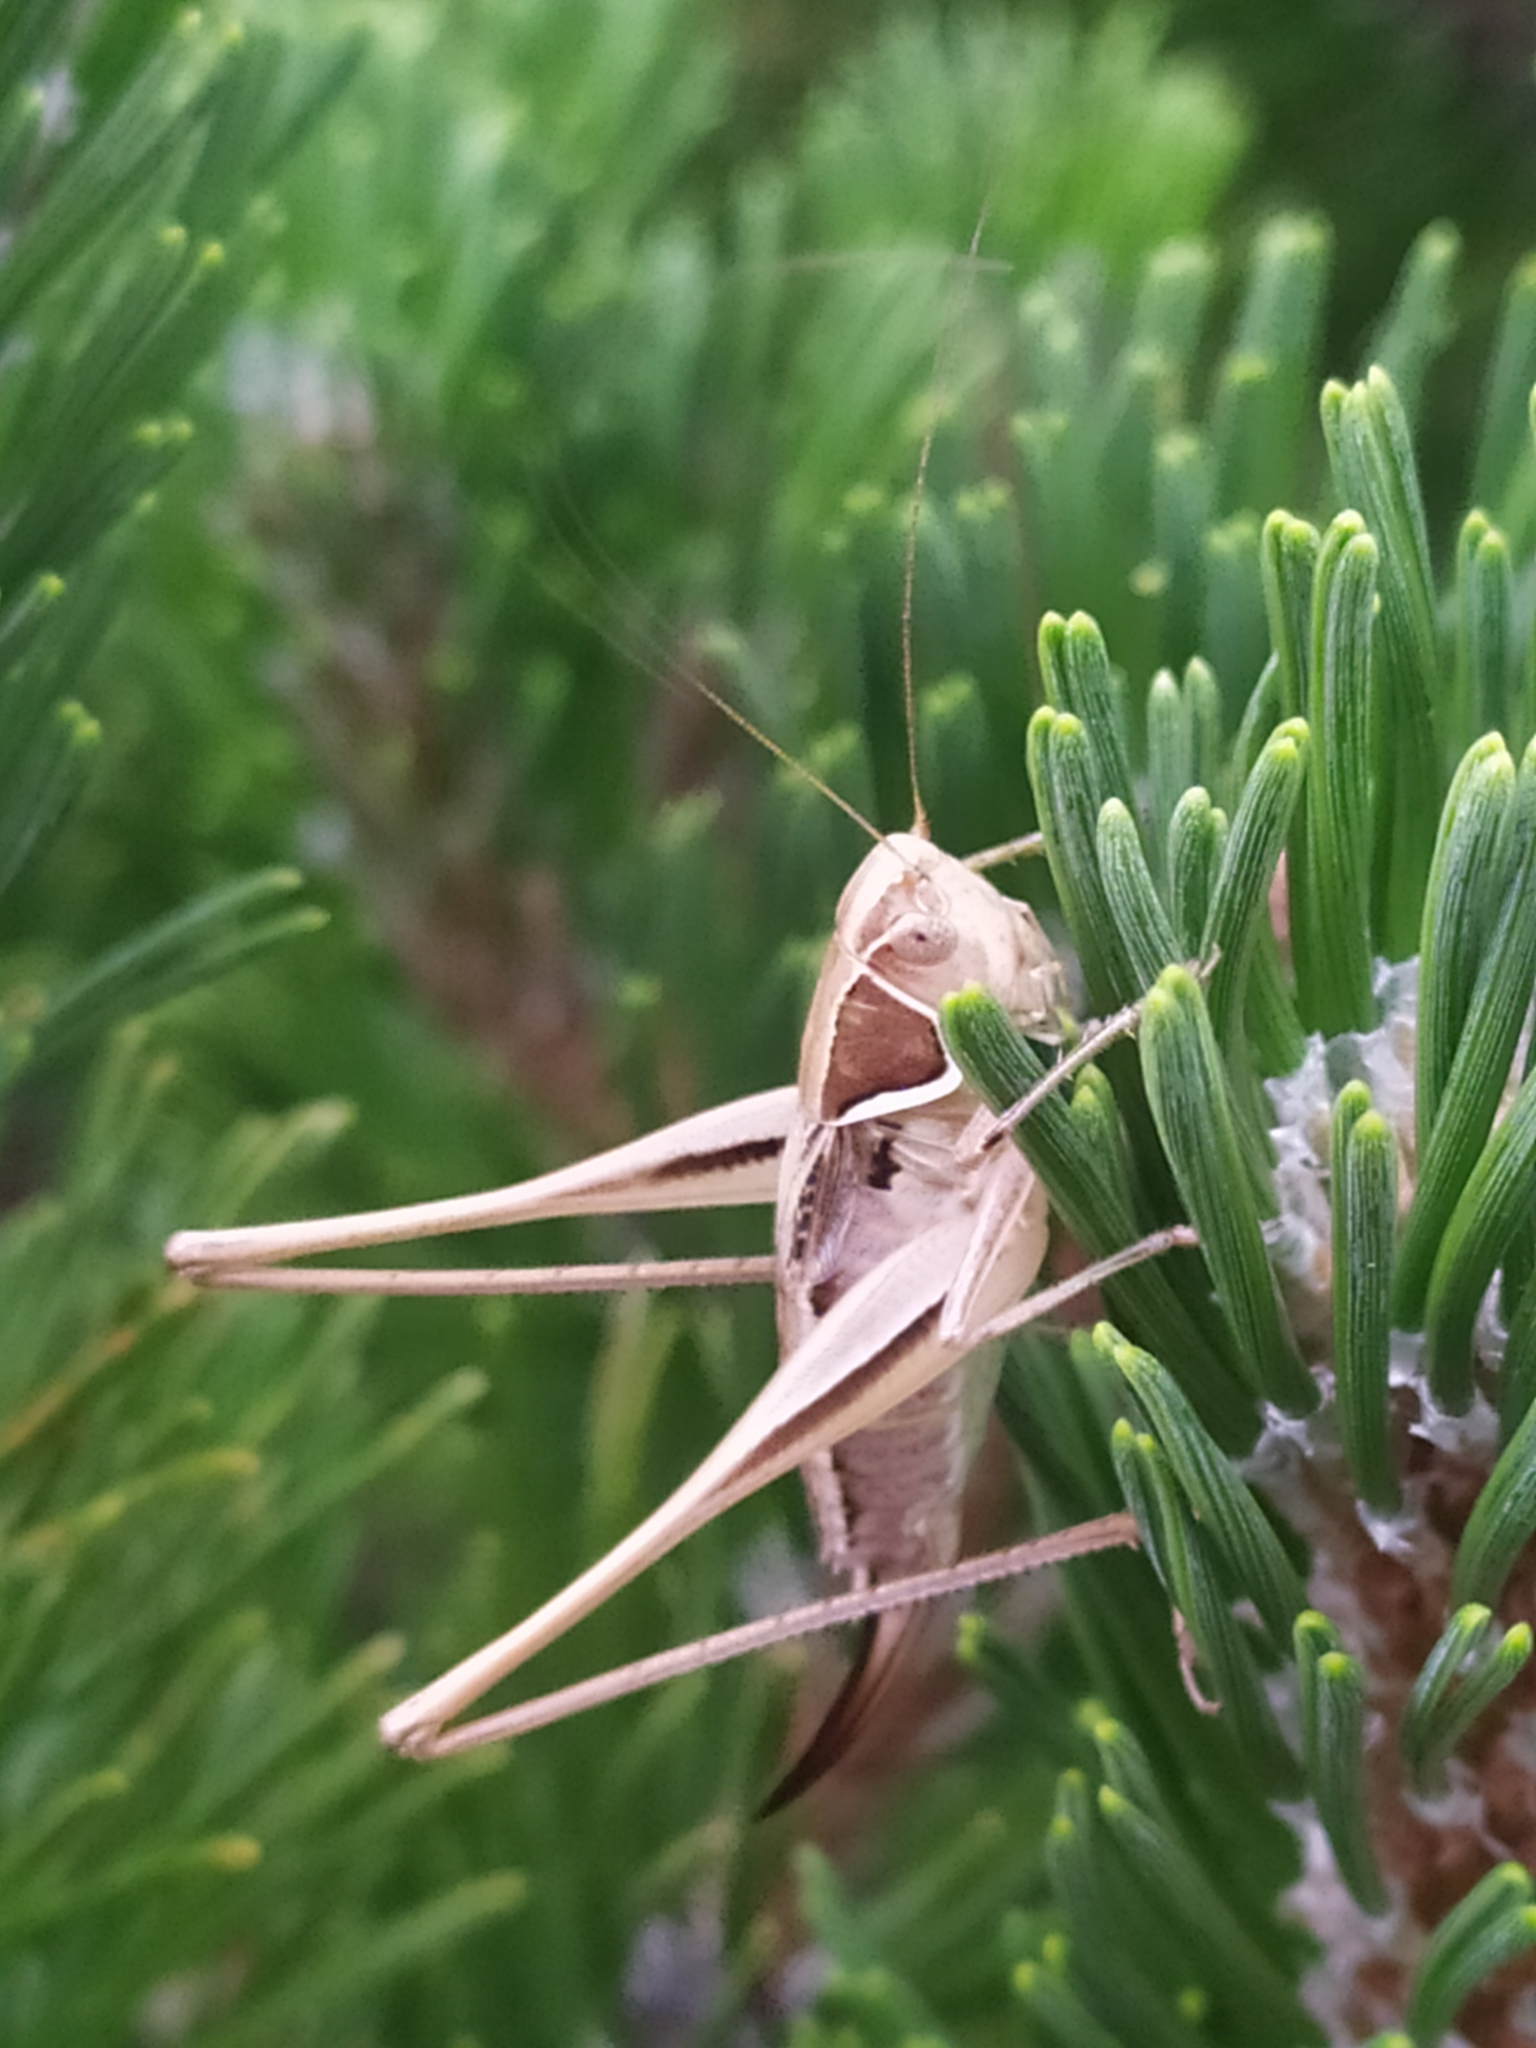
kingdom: Animalia
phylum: Arthropoda
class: Insecta
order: Orthoptera
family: Tettigoniidae
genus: Modestana
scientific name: Modestana modesta
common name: Common modest bush-cricket
